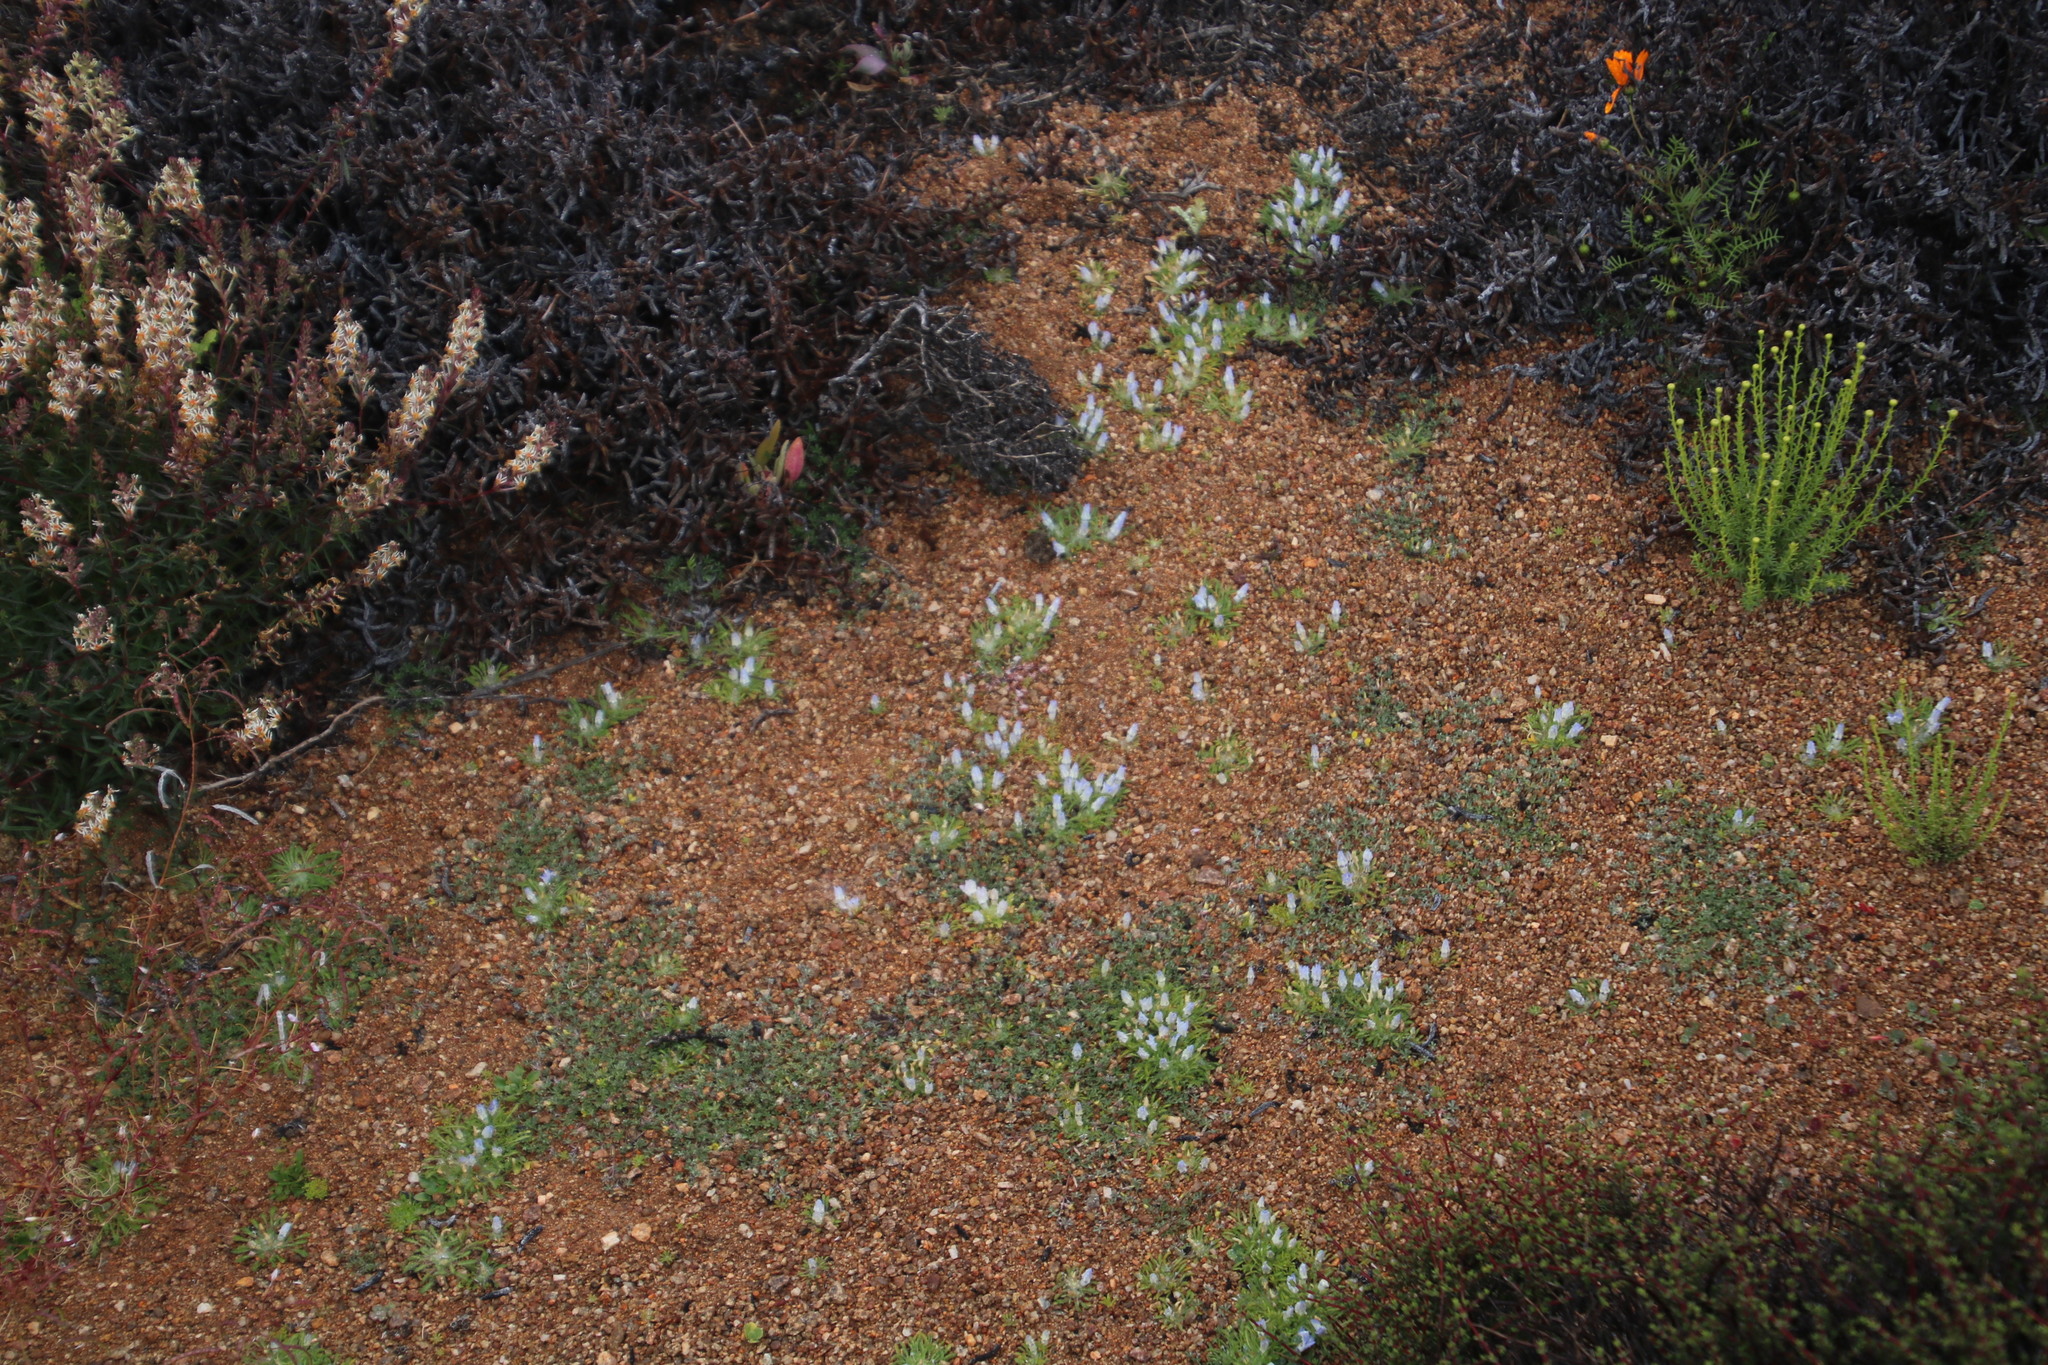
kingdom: Plantae
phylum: Tracheophyta
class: Magnoliopsida
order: Asterales
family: Campanulaceae
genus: Wahlenbergia
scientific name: Wahlenbergia acaulis
